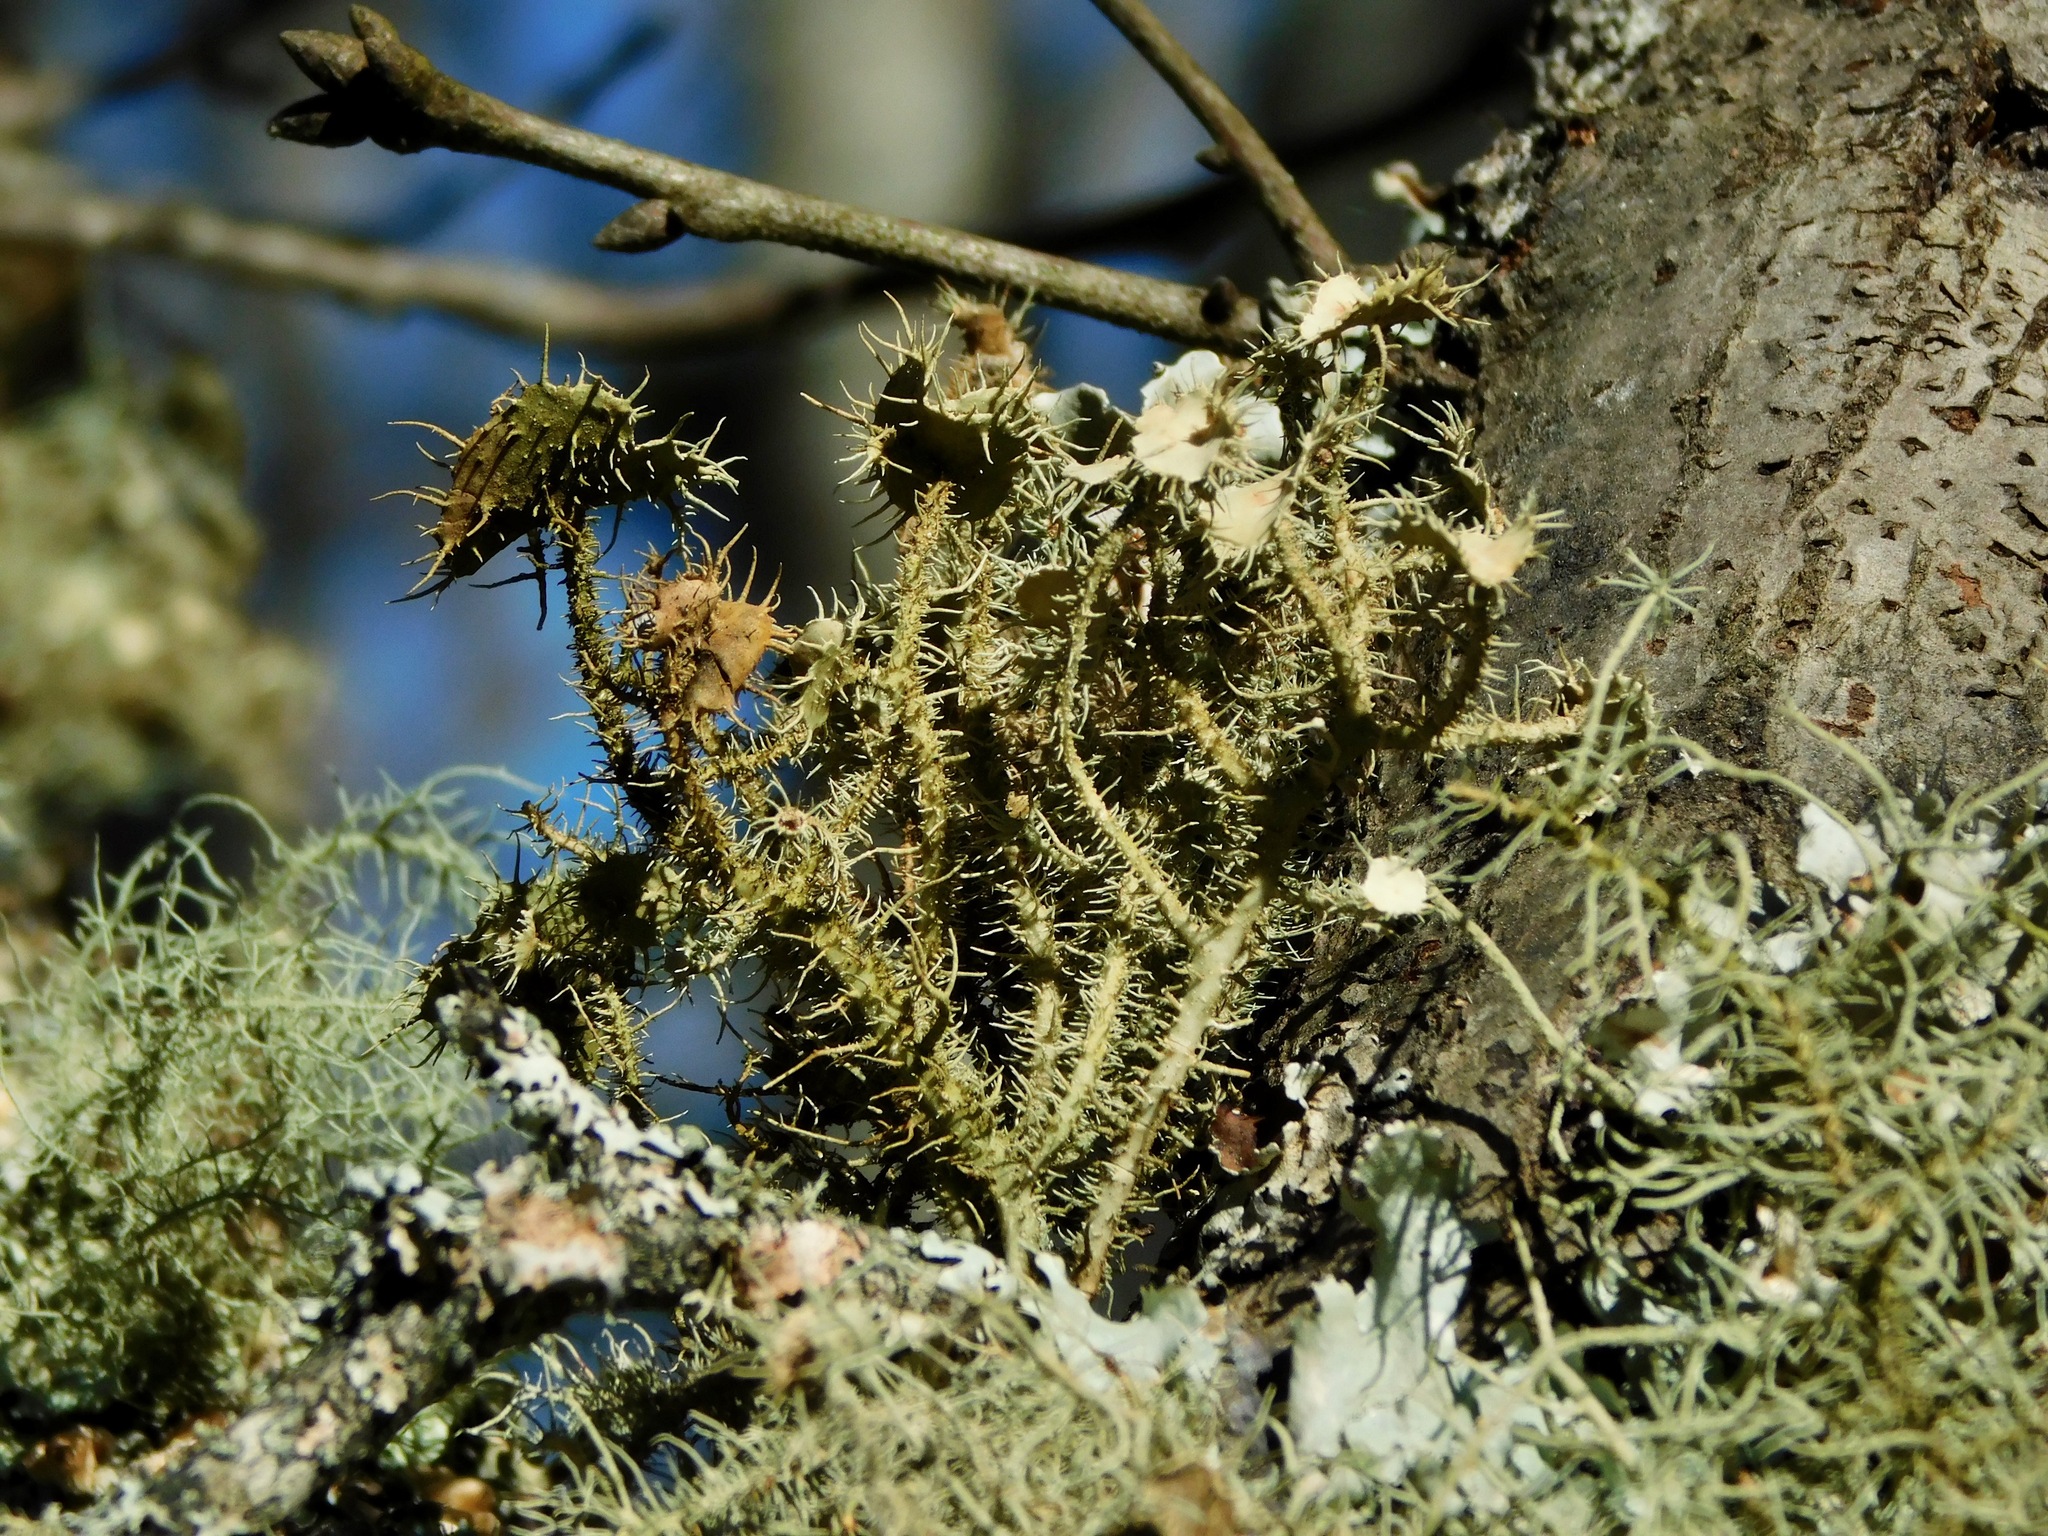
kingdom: Fungi
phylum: Ascomycota
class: Lecanoromycetes
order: Lecanorales
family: Parmeliaceae
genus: Usnea
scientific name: Usnea strigosa
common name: Bushy beard lichen
